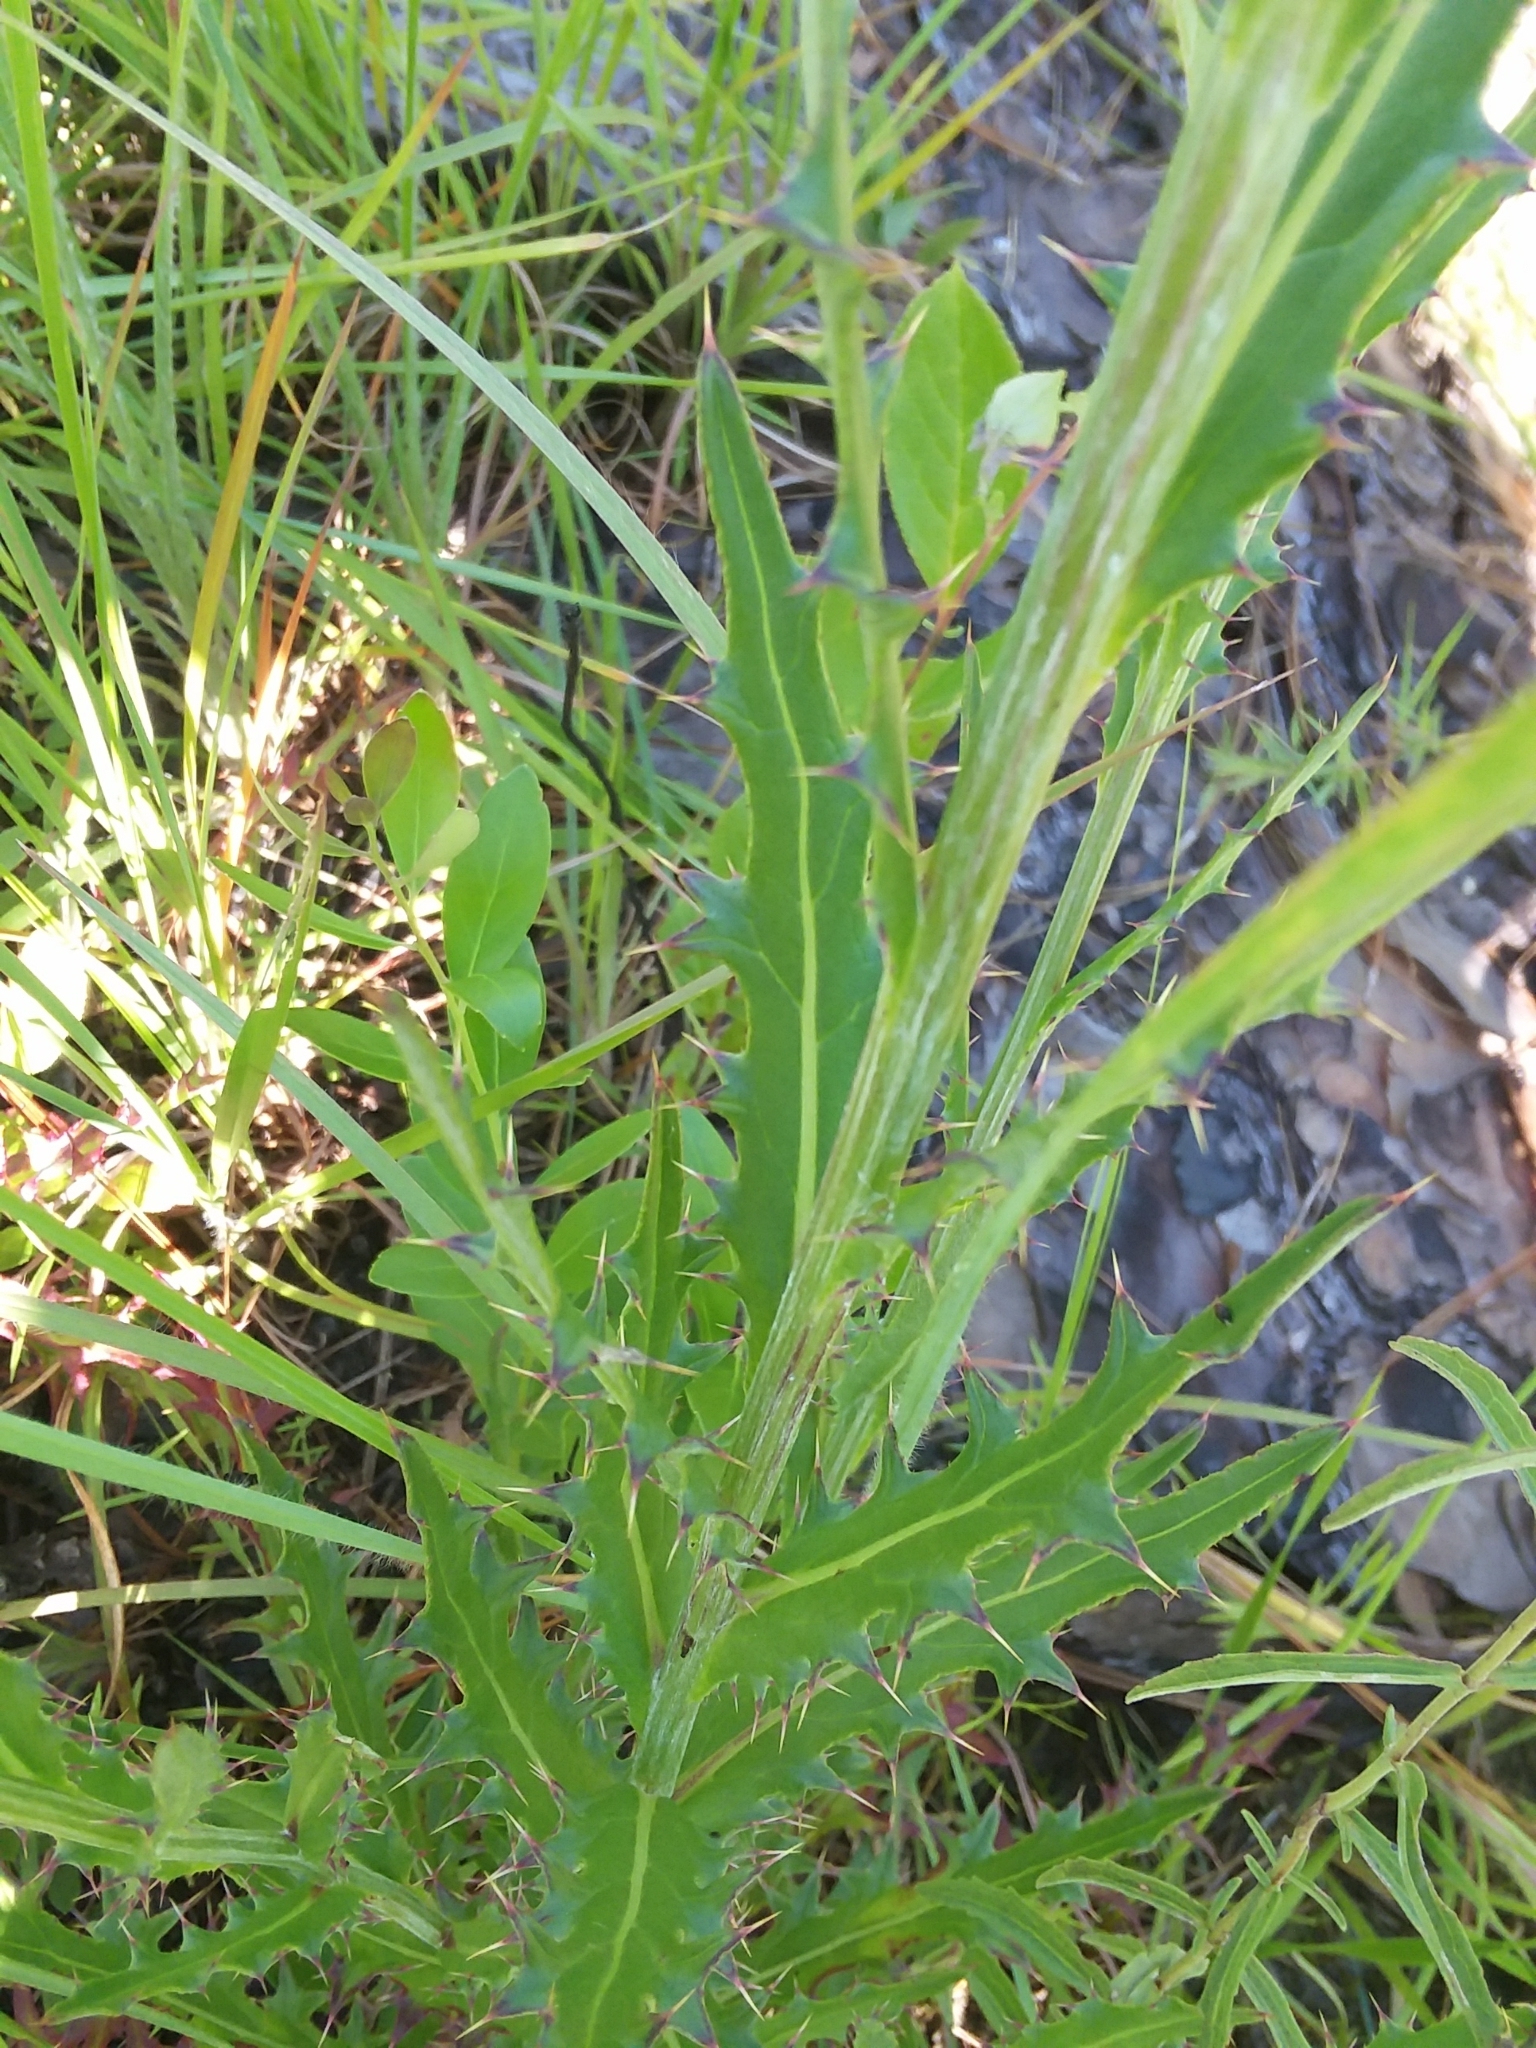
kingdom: Plantae
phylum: Tracheophyta
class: Magnoliopsida
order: Asterales
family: Asteraceae
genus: Cirsium
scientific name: Cirsium lecontei
